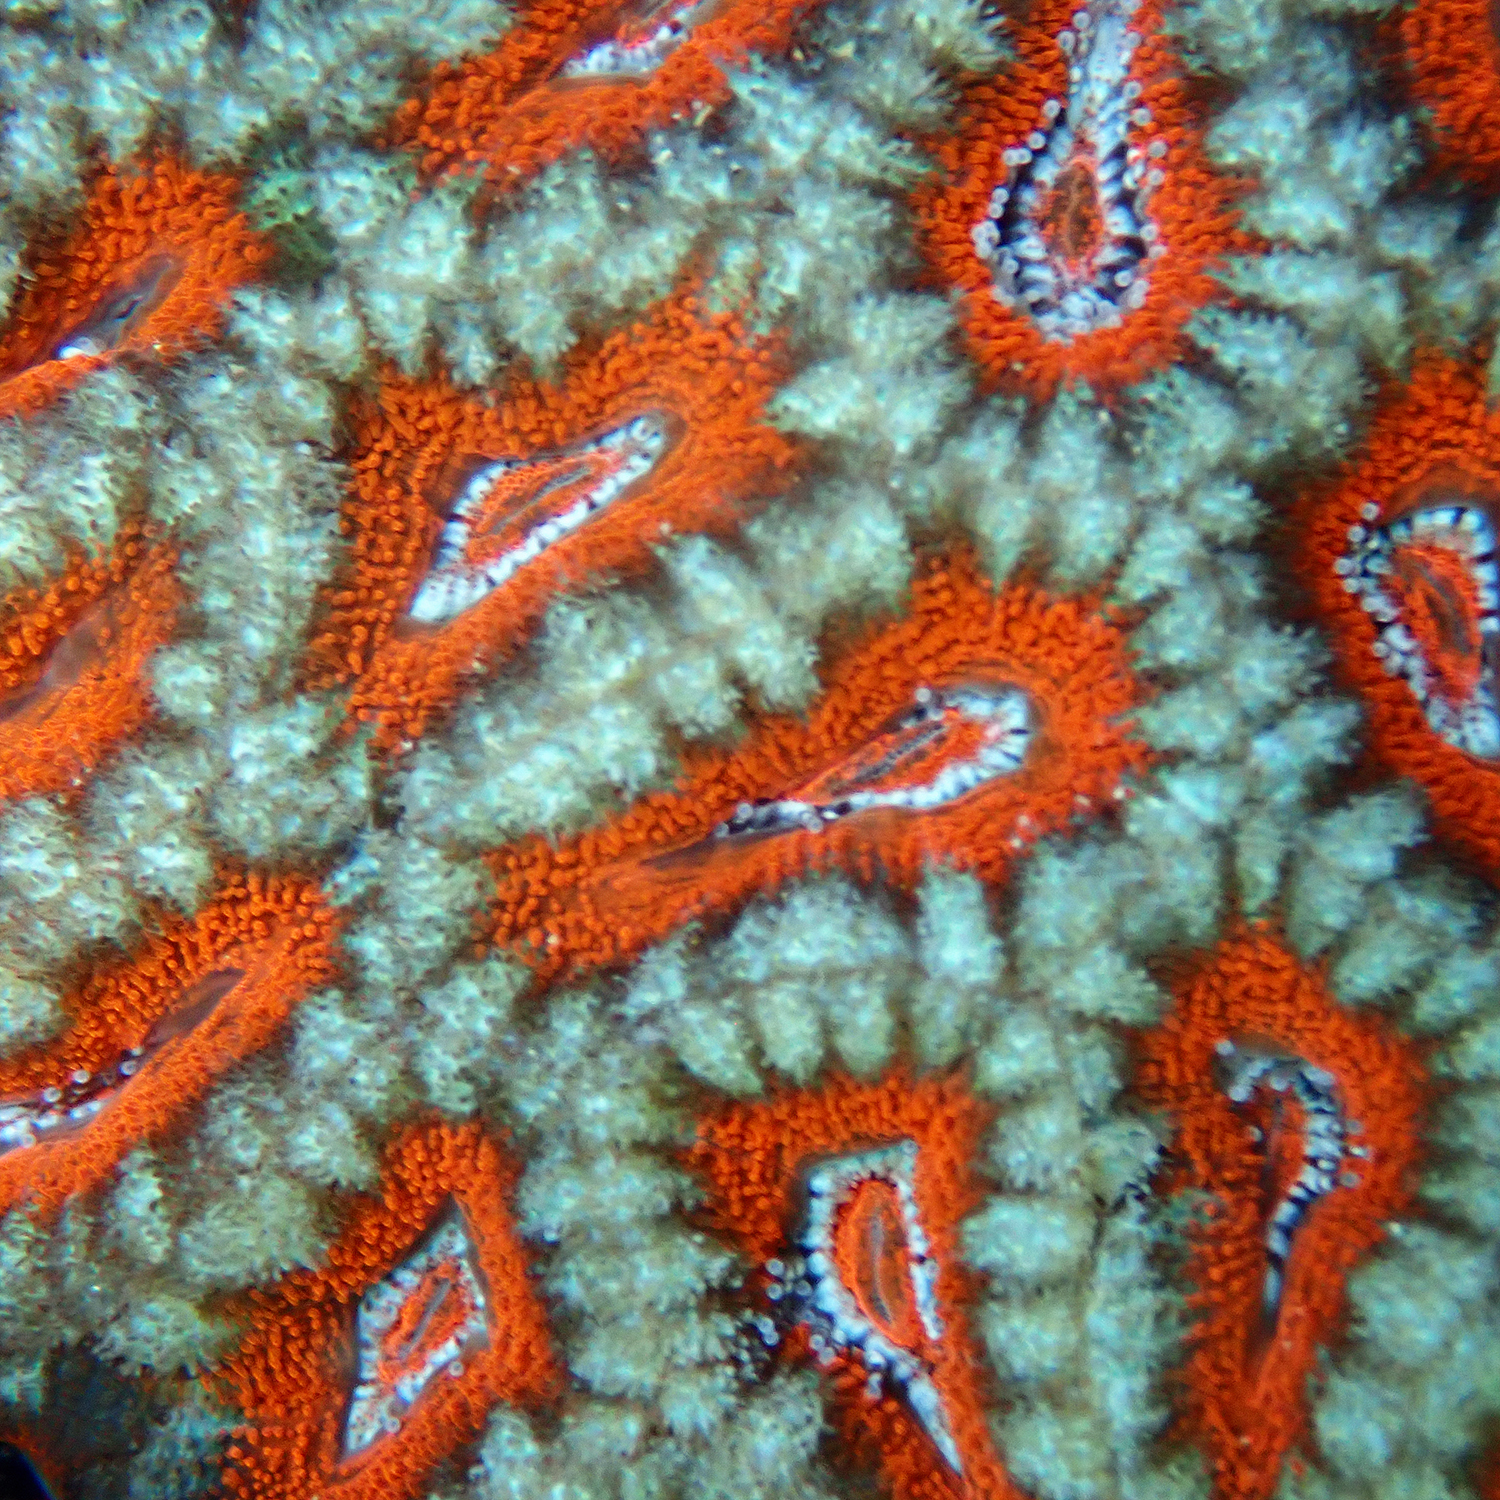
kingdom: Animalia
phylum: Cnidaria
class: Anthozoa
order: Scleractinia
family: Lobophylliidae
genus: Micromussa
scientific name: Micromussa lordhowensis
